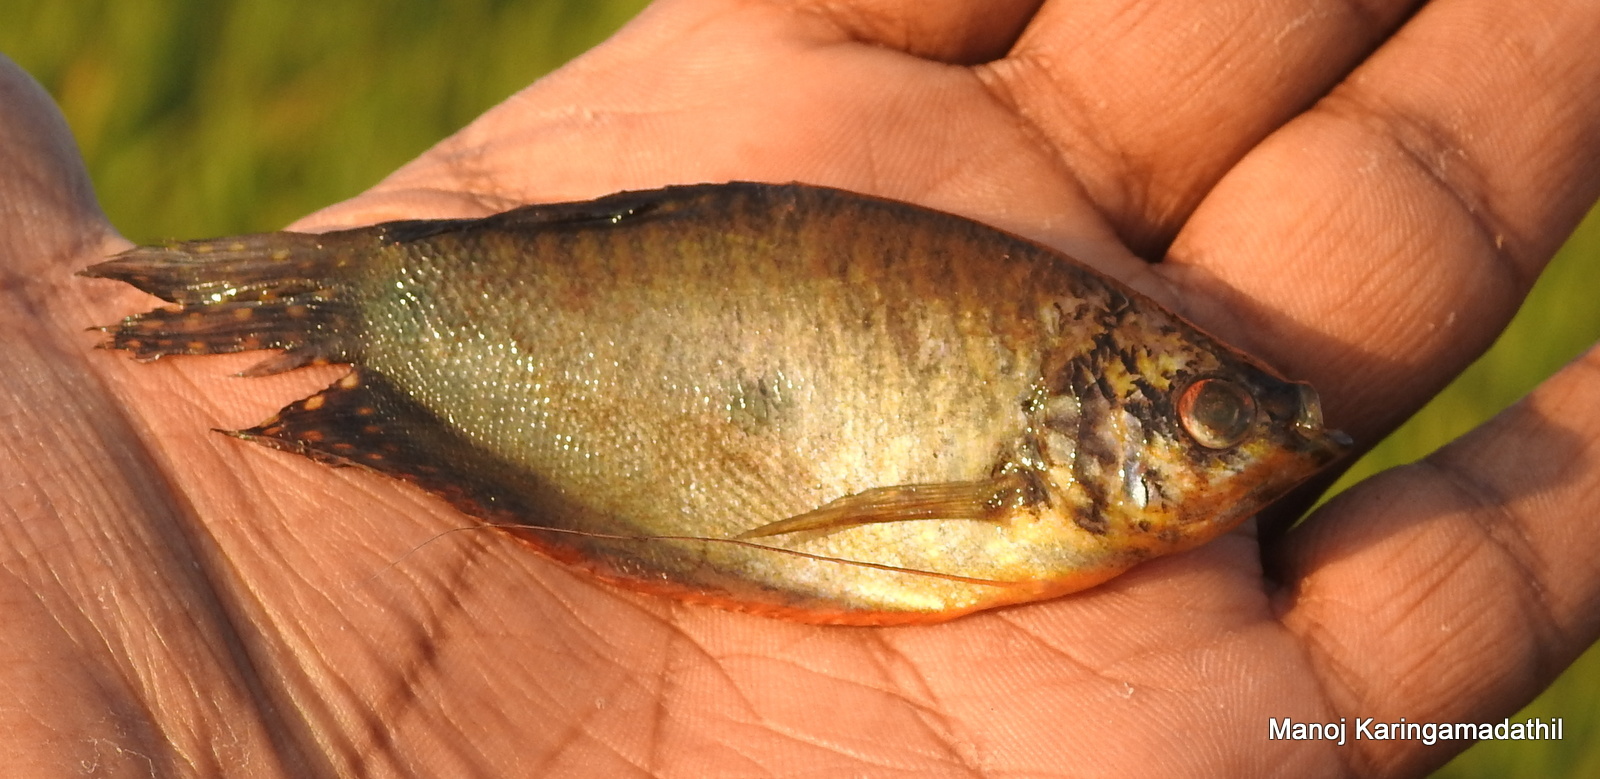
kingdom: Animalia
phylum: Chordata
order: Perciformes
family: Osphronemidae
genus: Trichopodus
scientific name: Trichopodus trichopterus
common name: Blue gourami
